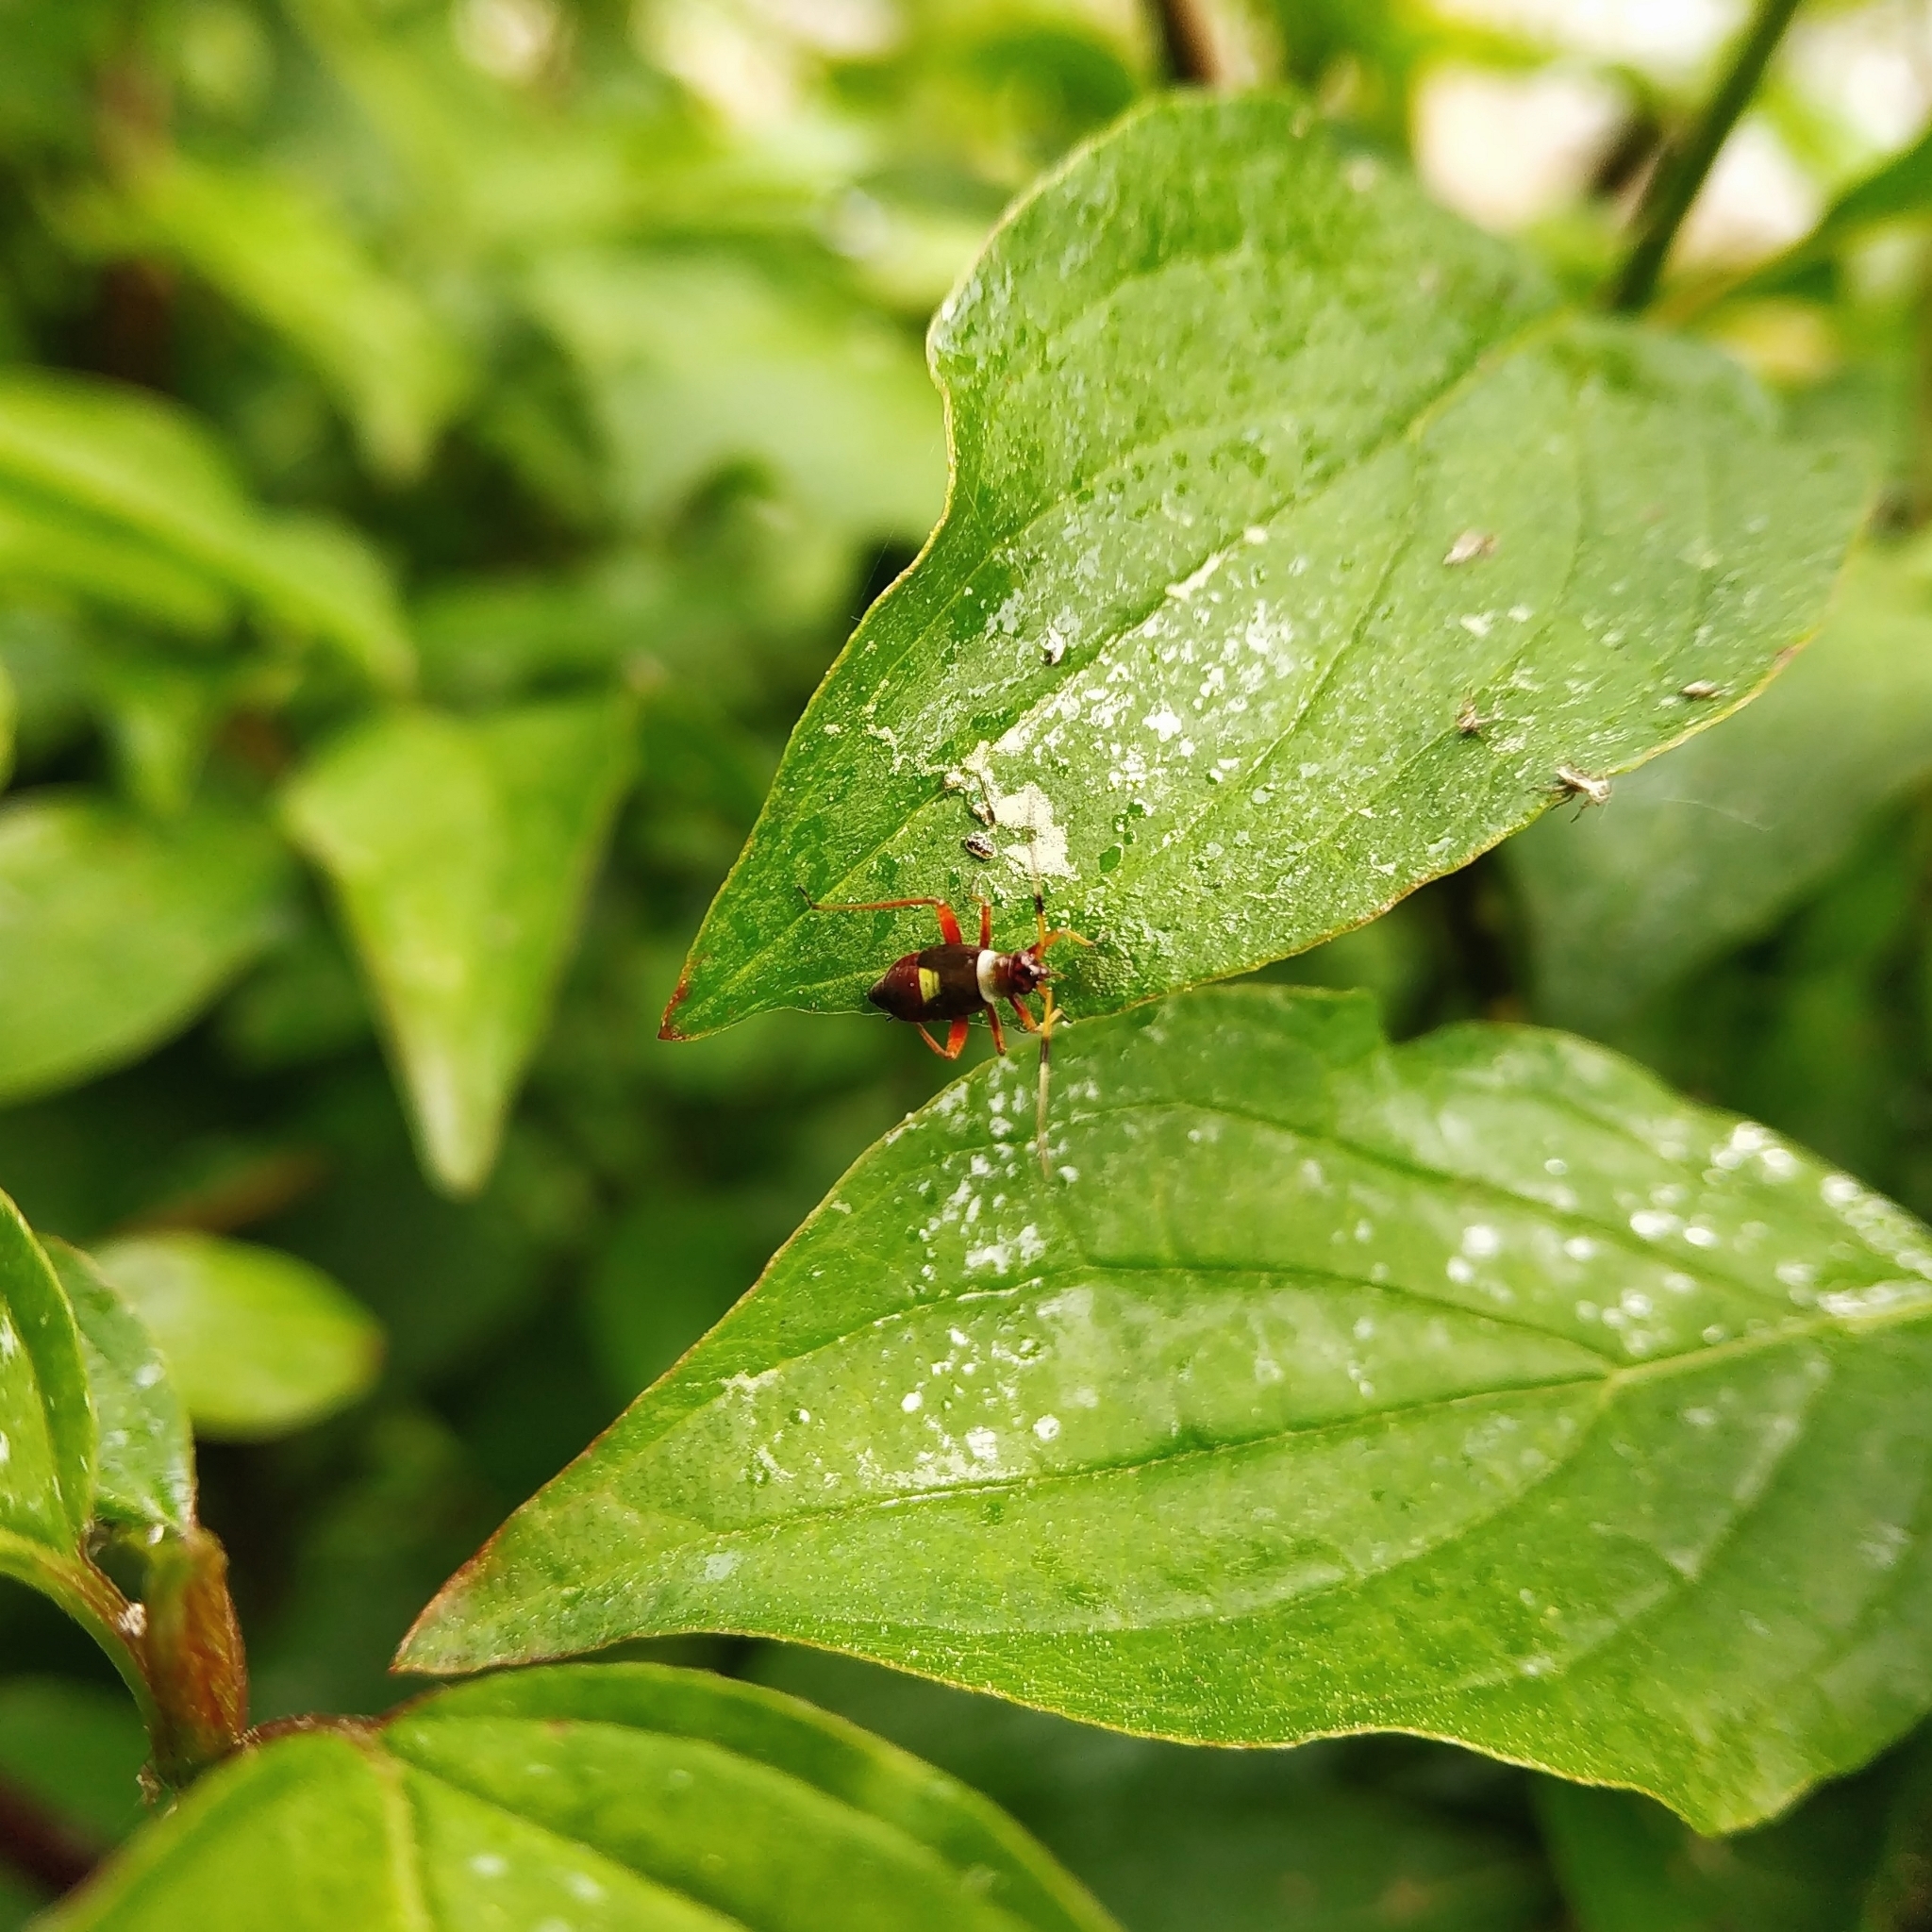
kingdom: Animalia
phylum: Arthropoda
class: Insecta
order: Hemiptera
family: Miridae
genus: Closterotomus
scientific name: Closterotomus biclavatus
